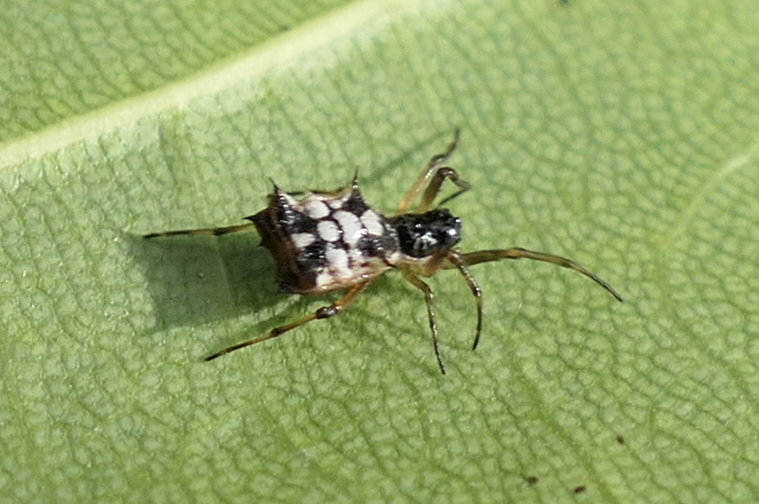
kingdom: Animalia
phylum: Arthropoda
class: Arachnida
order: Araneae
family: Araneidae
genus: Micrathena
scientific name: Micrathena picta
